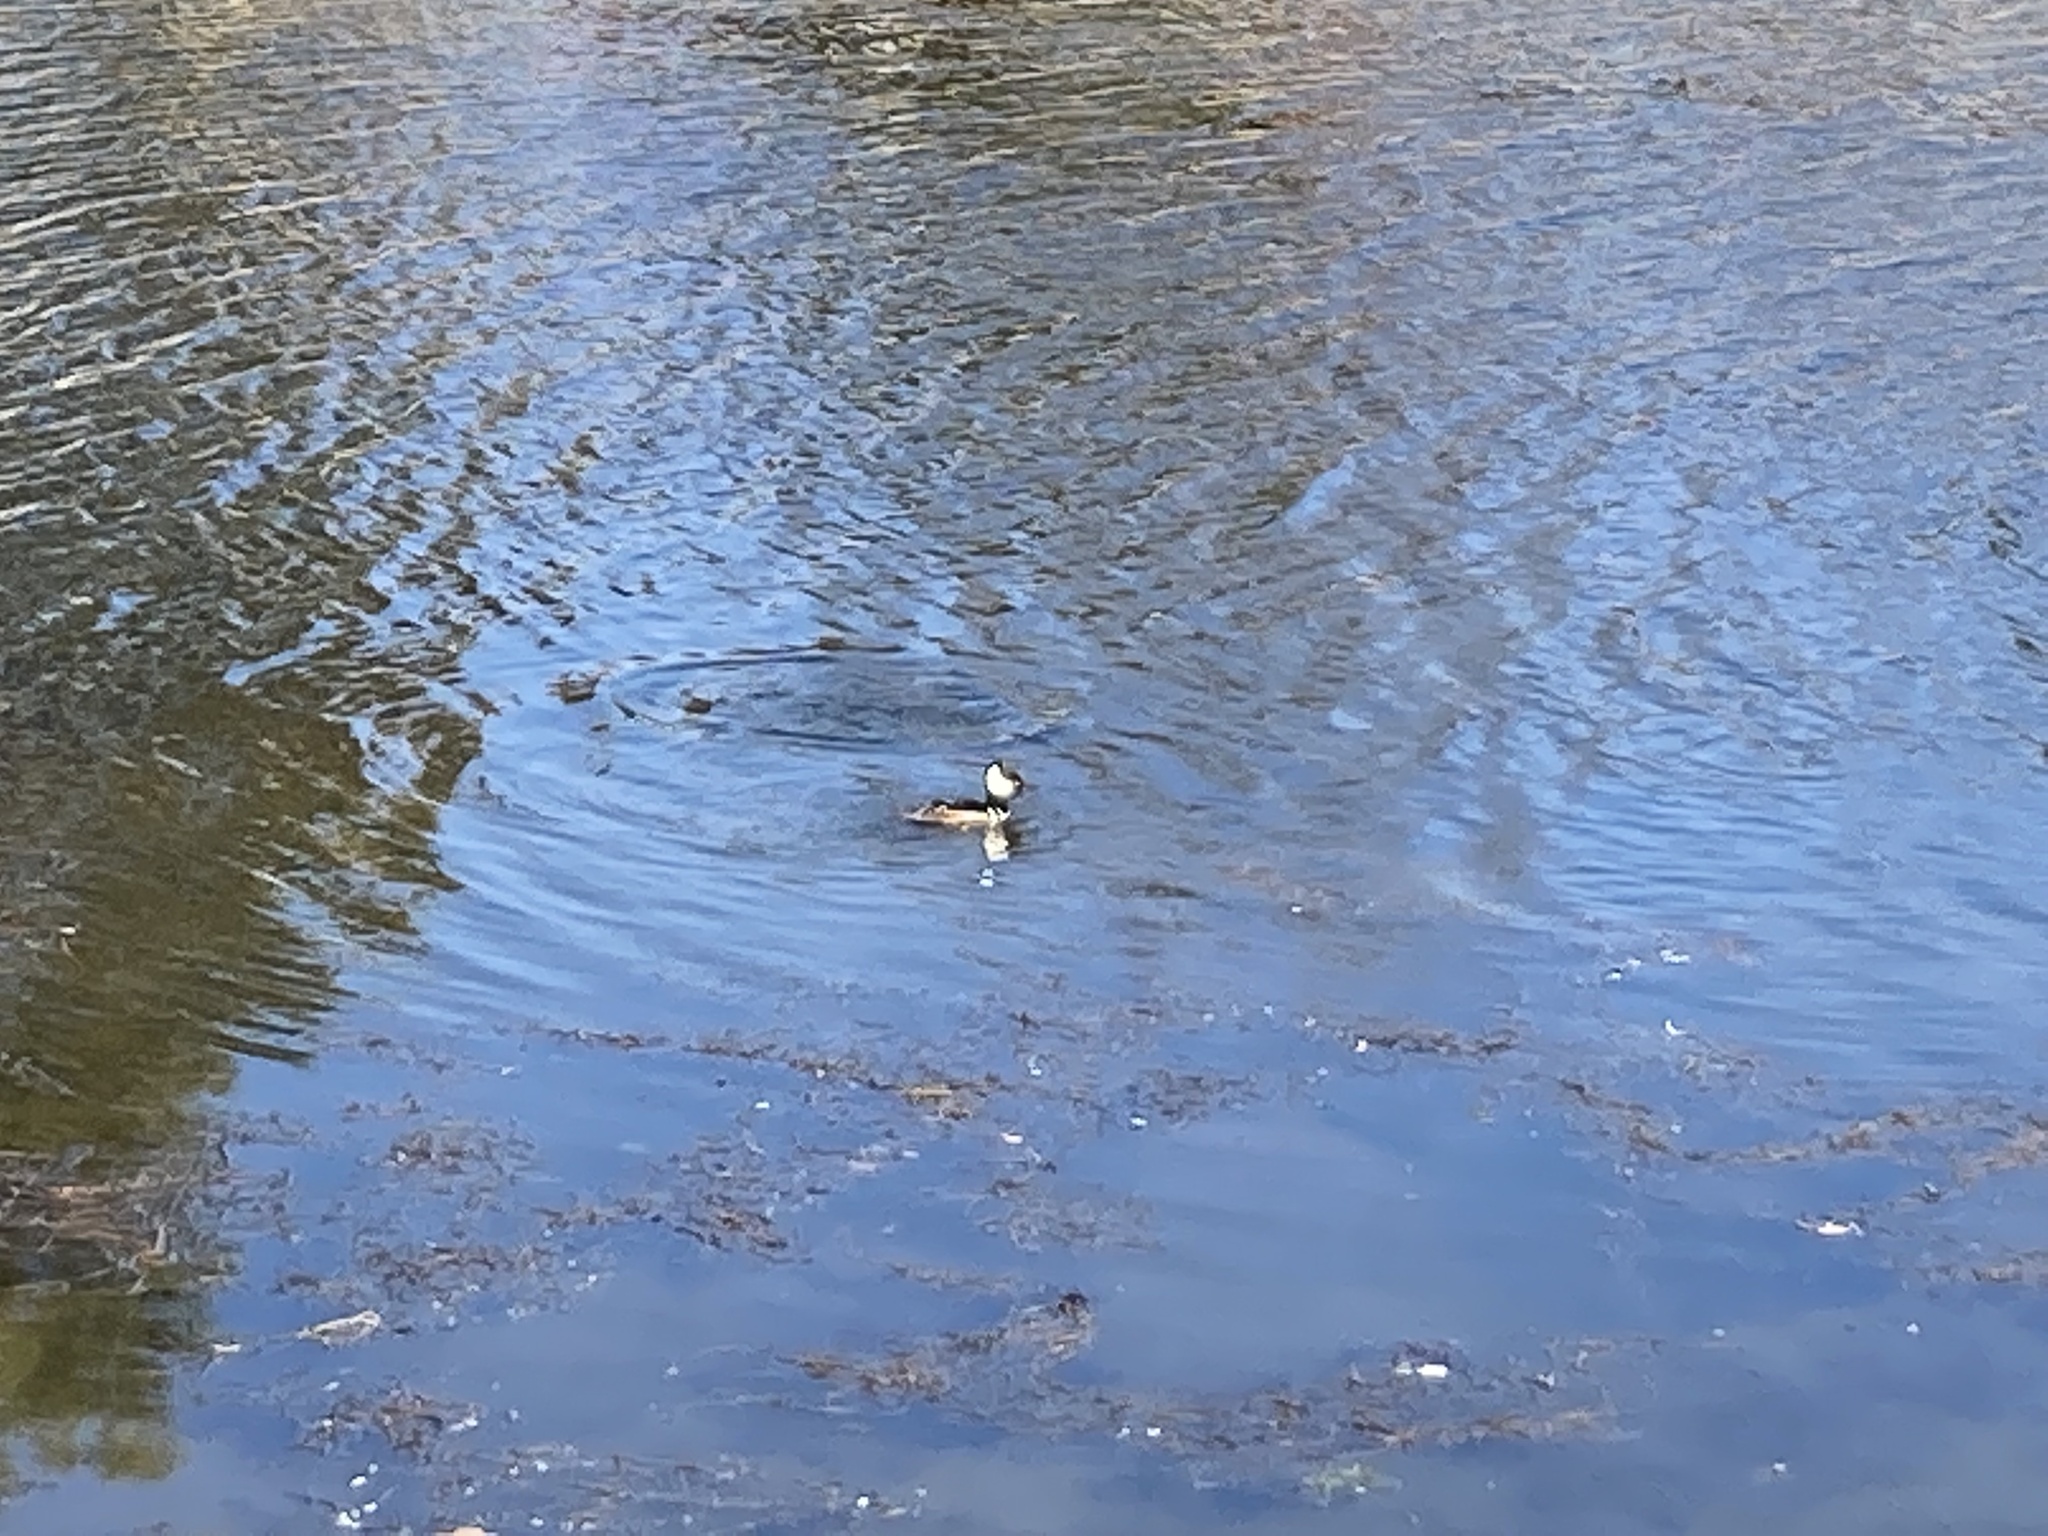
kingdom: Animalia
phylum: Chordata
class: Aves
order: Anseriformes
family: Anatidae
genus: Lophodytes
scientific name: Lophodytes cucullatus
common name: Hooded merganser
